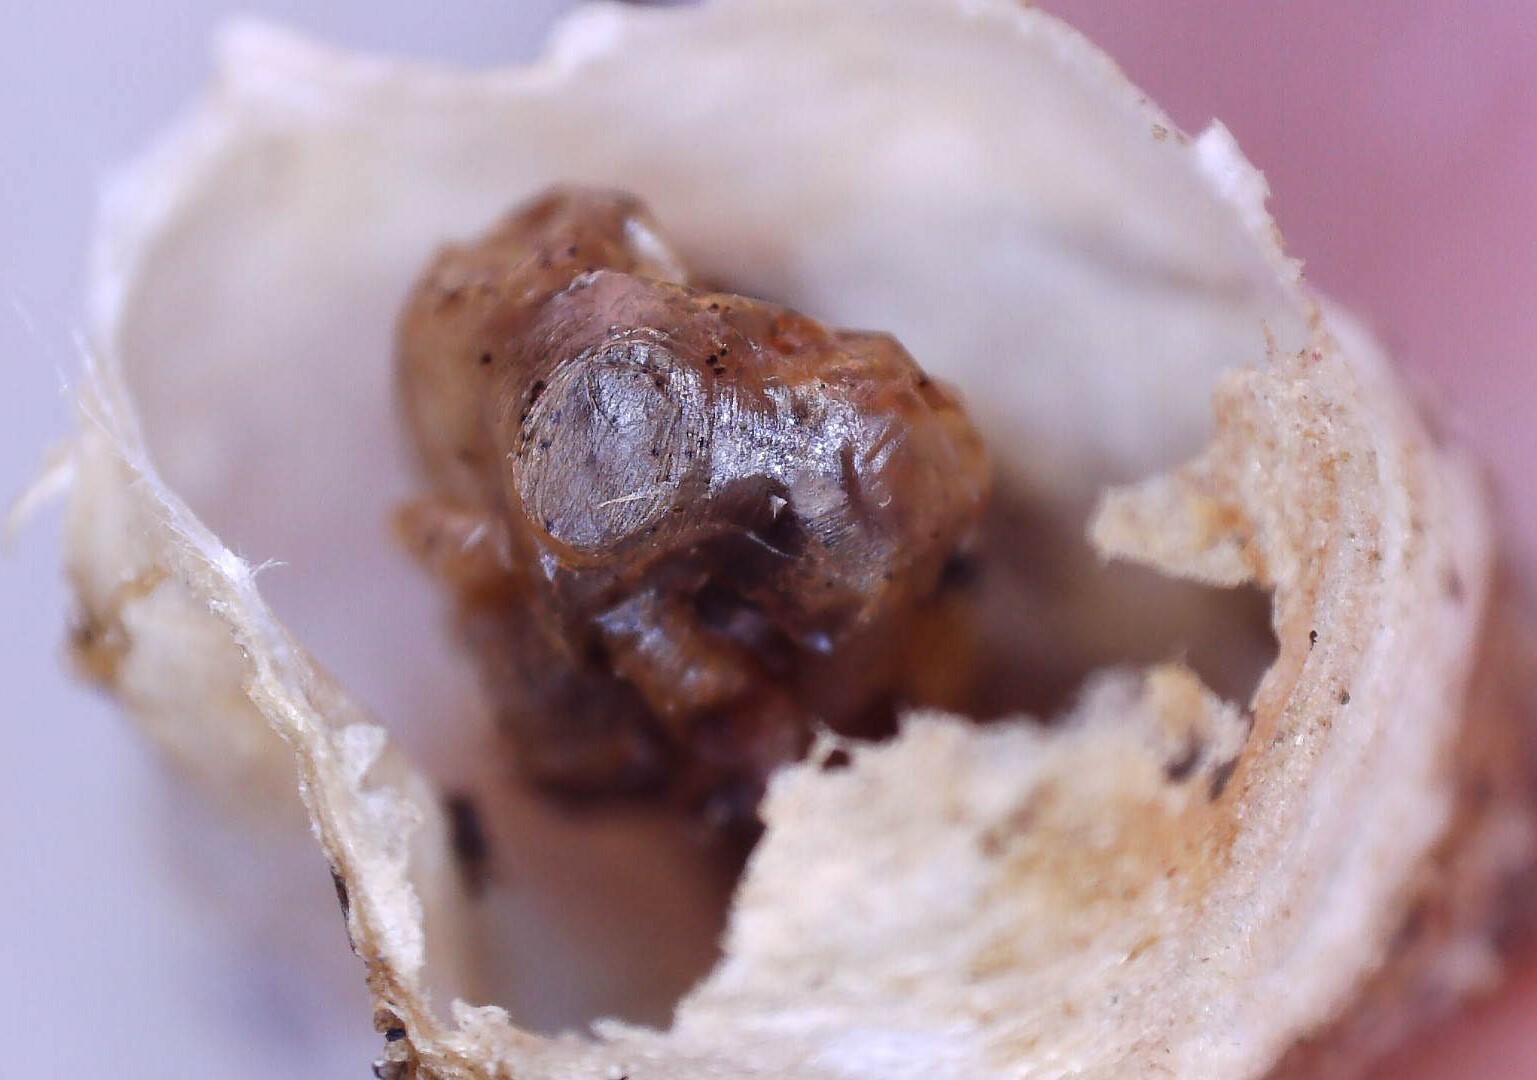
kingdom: Animalia
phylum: Arthropoda
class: Insecta
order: Hymenoptera
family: Vespidae
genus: Dolichovespula
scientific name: Dolichovespula maculata
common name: Bald-faced hornet
